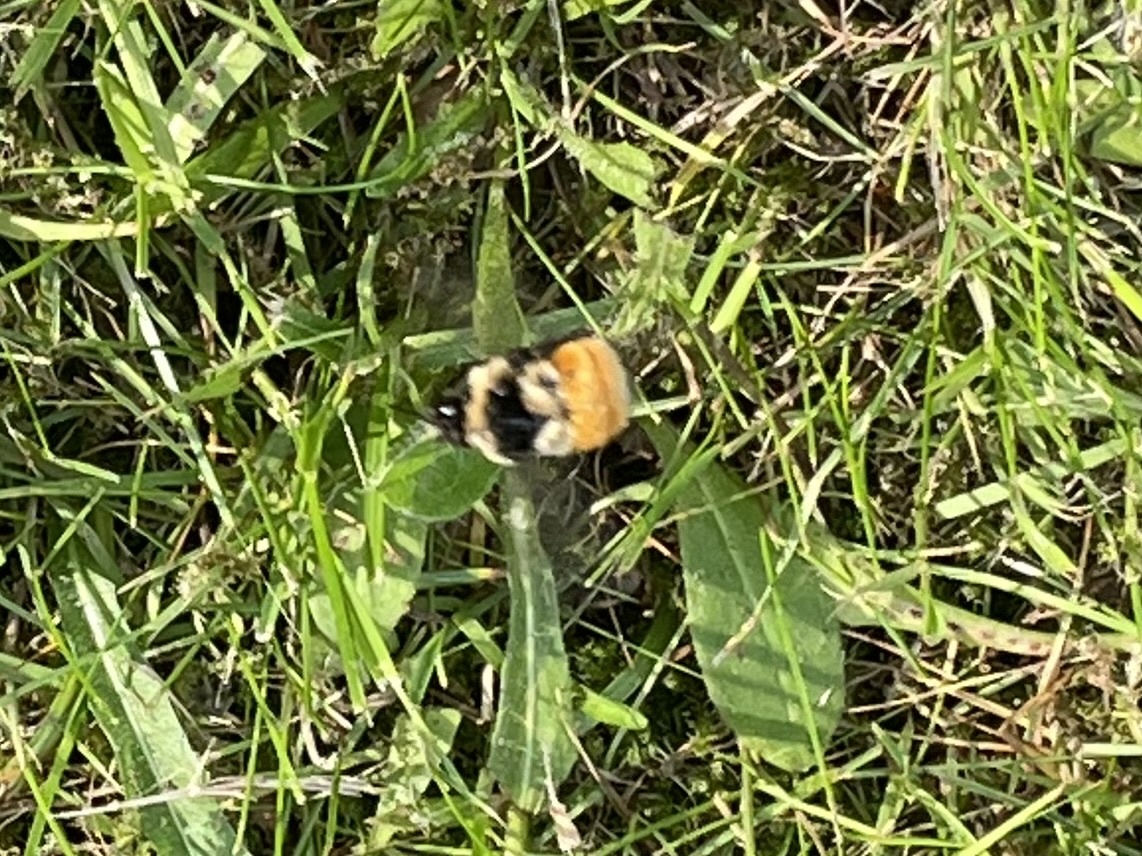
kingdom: Animalia
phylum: Arthropoda
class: Insecta
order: Hymenoptera
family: Apidae
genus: Bombus
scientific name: Bombus ternarius
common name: Tri-colored bumble bee
